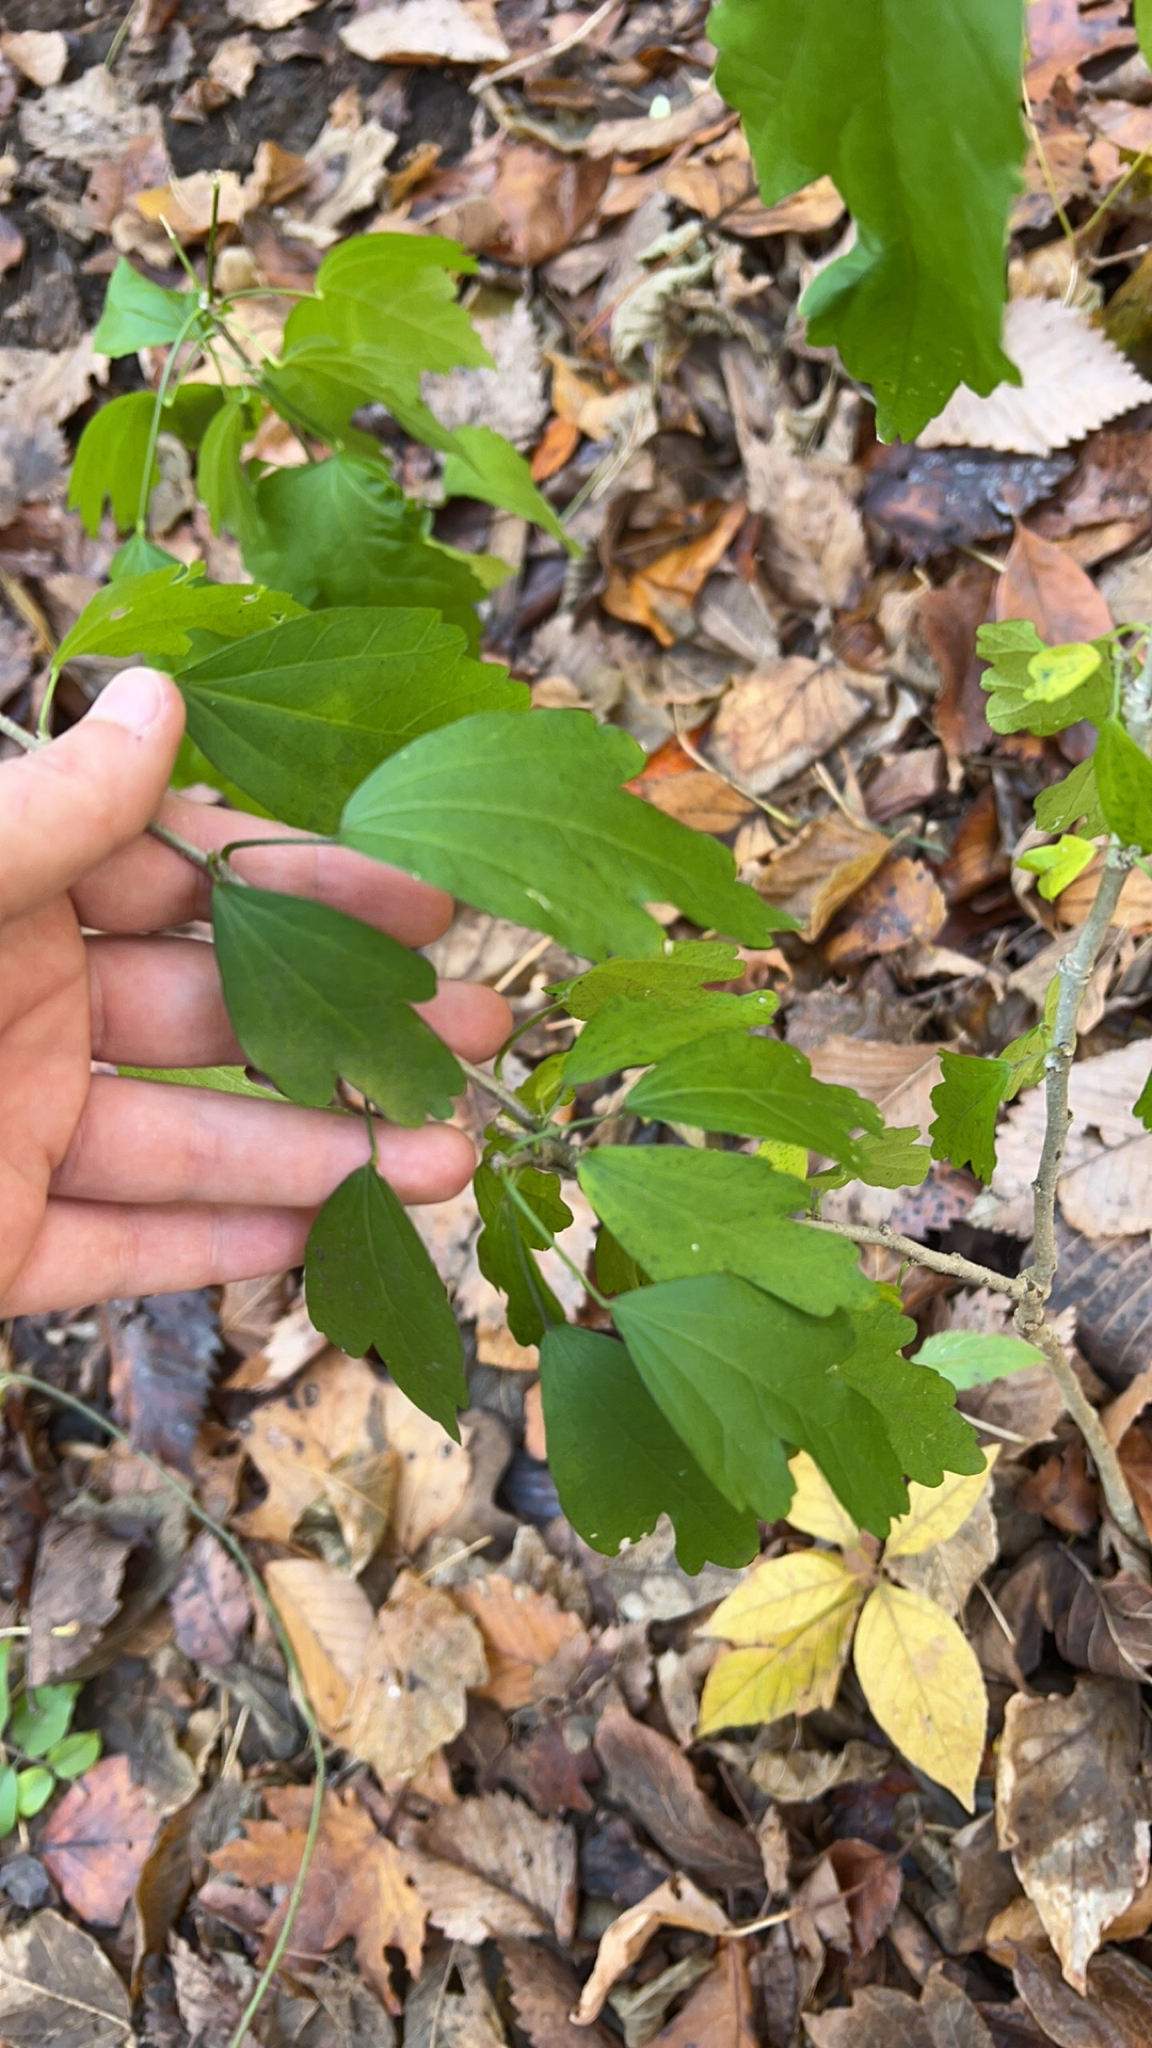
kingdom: Plantae
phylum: Tracheophyta
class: Magnoliopsida
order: Malvales
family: Malvaceae
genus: Hibiscus
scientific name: Hibiscus syriacus
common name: Syrian ketmia
